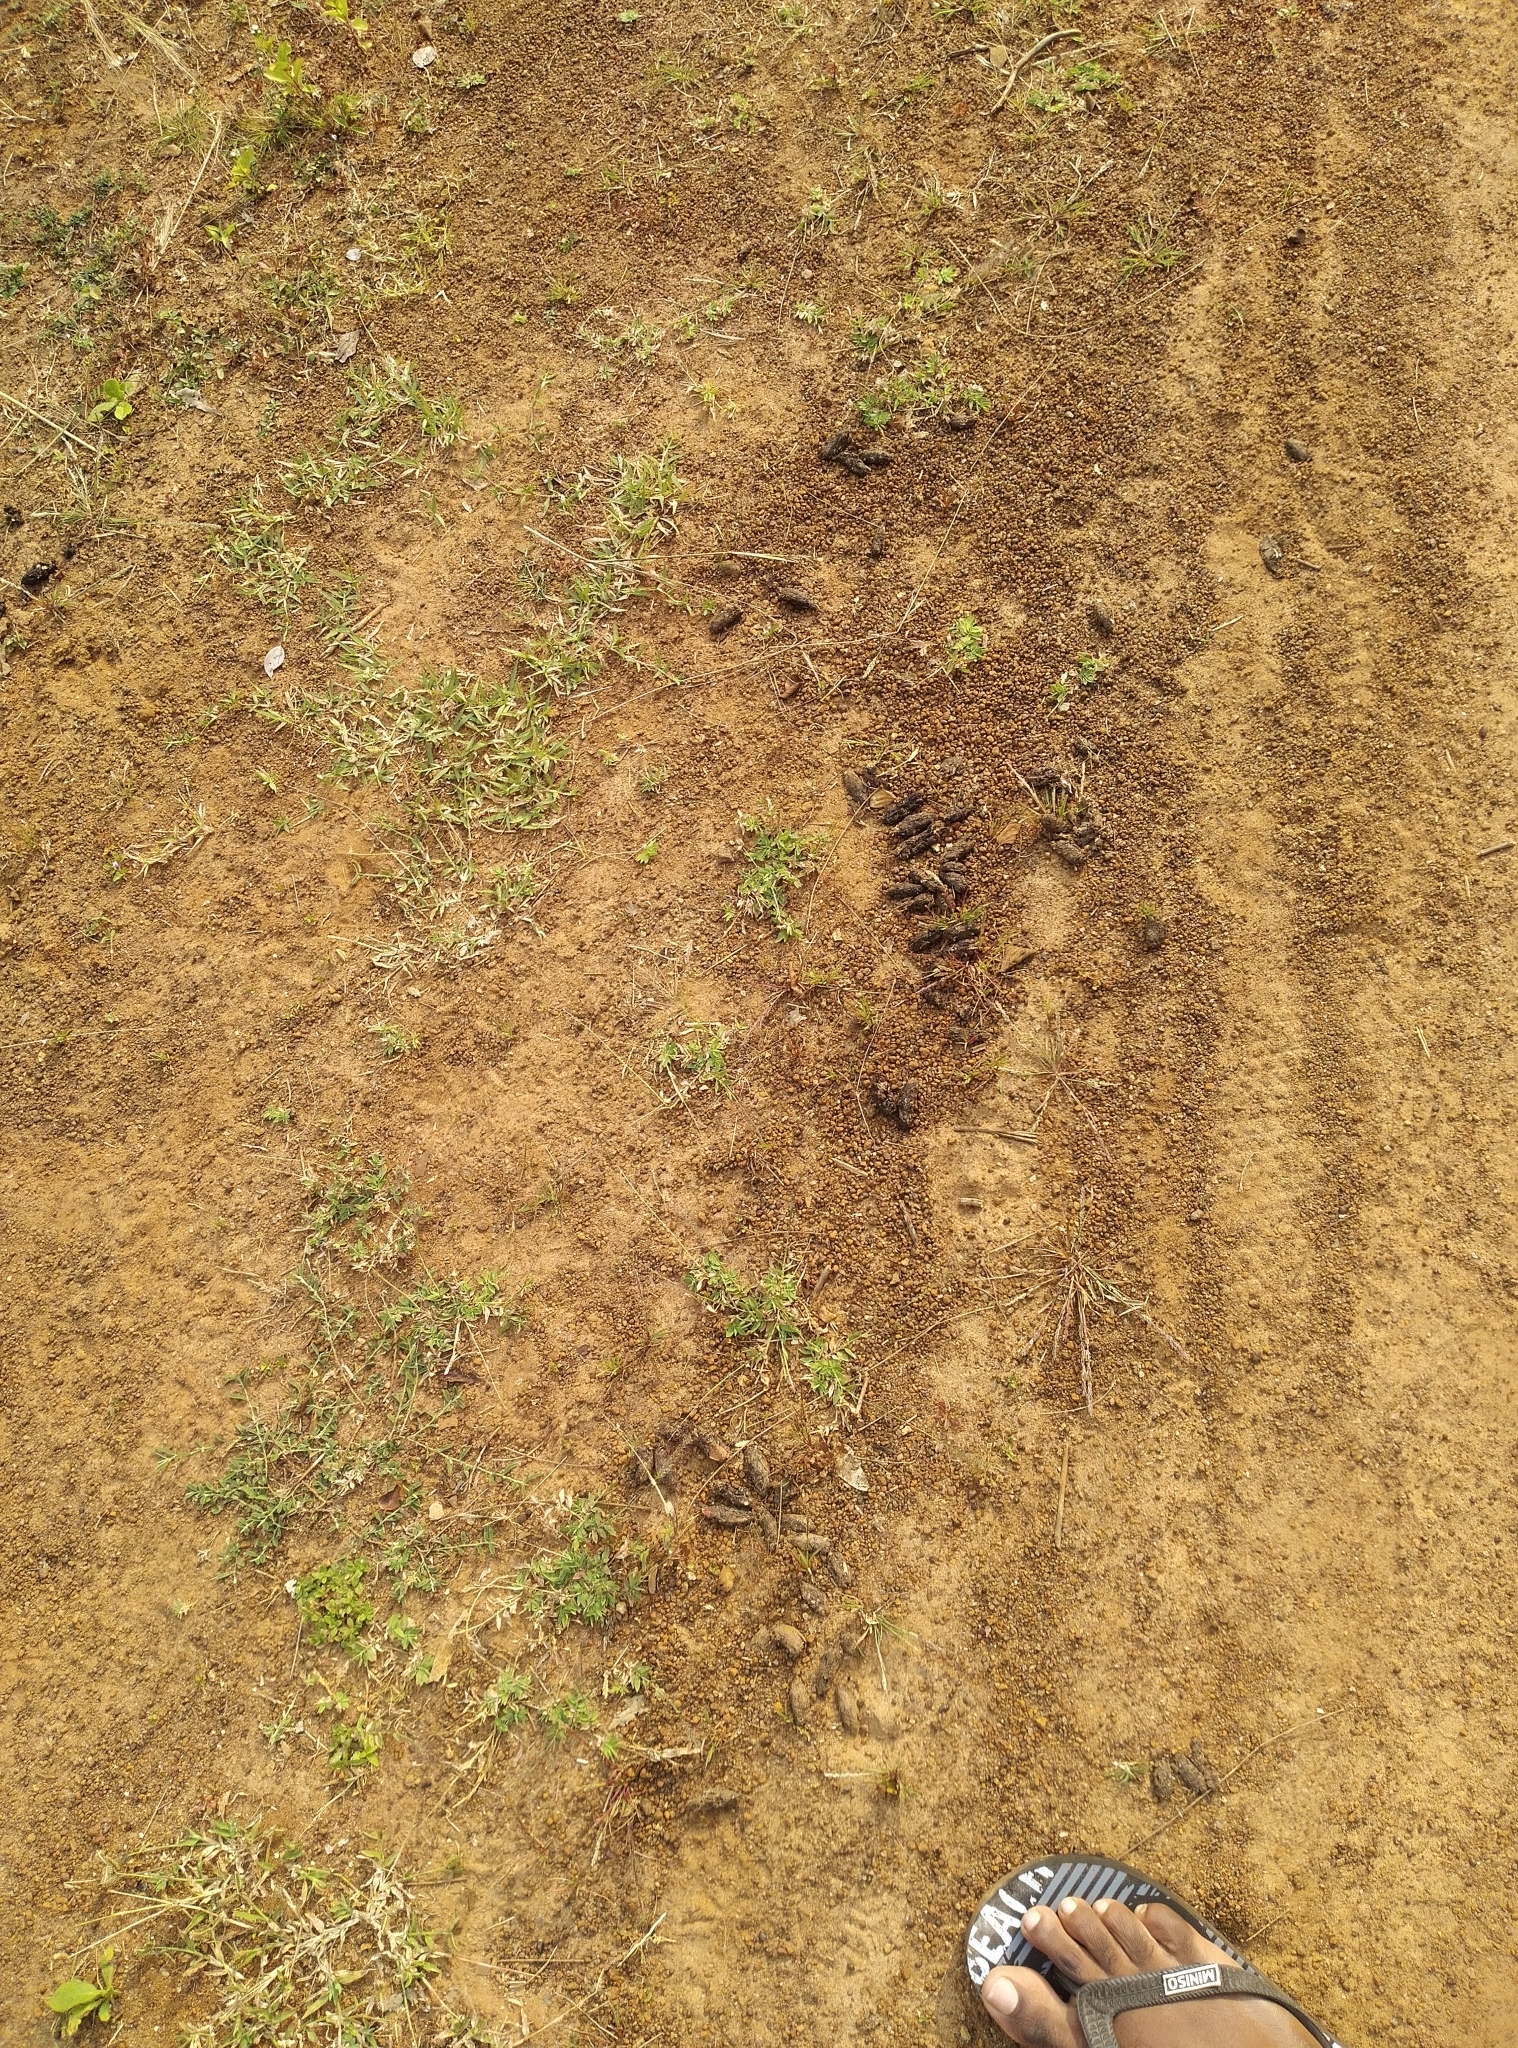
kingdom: Animalia
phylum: Chordata
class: Mammalia
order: Rodentia
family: Hystricidae
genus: Hystrix
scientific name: Hystrix indica
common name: Indian crested porcupine
